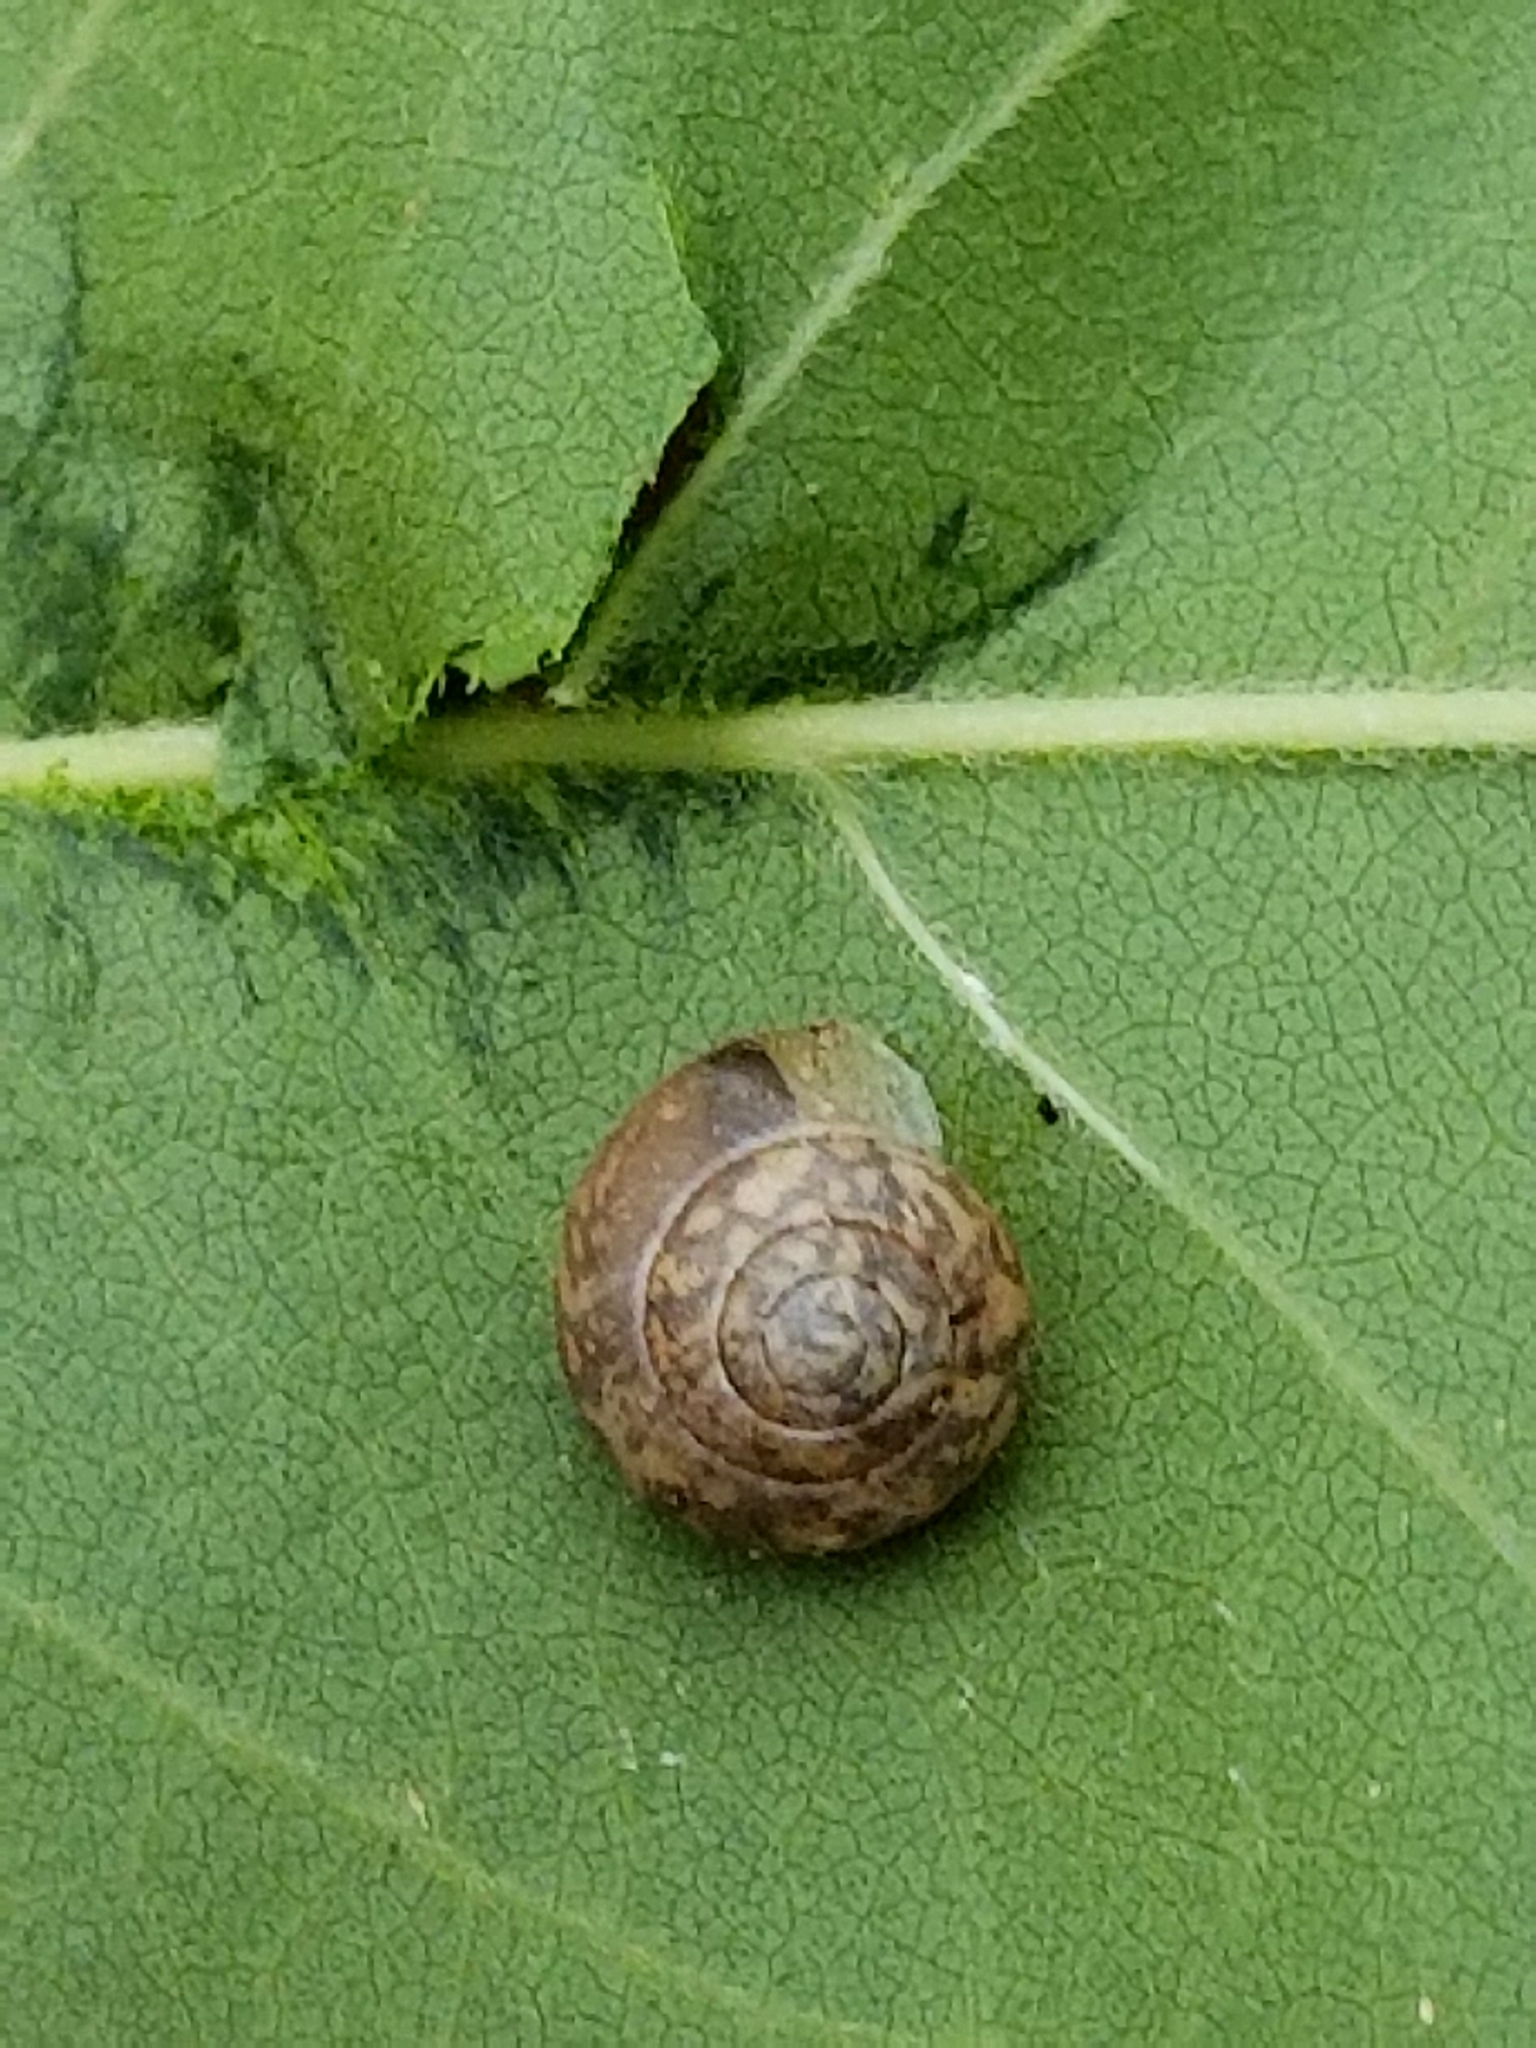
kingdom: Animalia
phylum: Mollusca
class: Gastropoda
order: Cycloneritida
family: Helicinidae
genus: Helicina
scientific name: Helicina orbiculata
